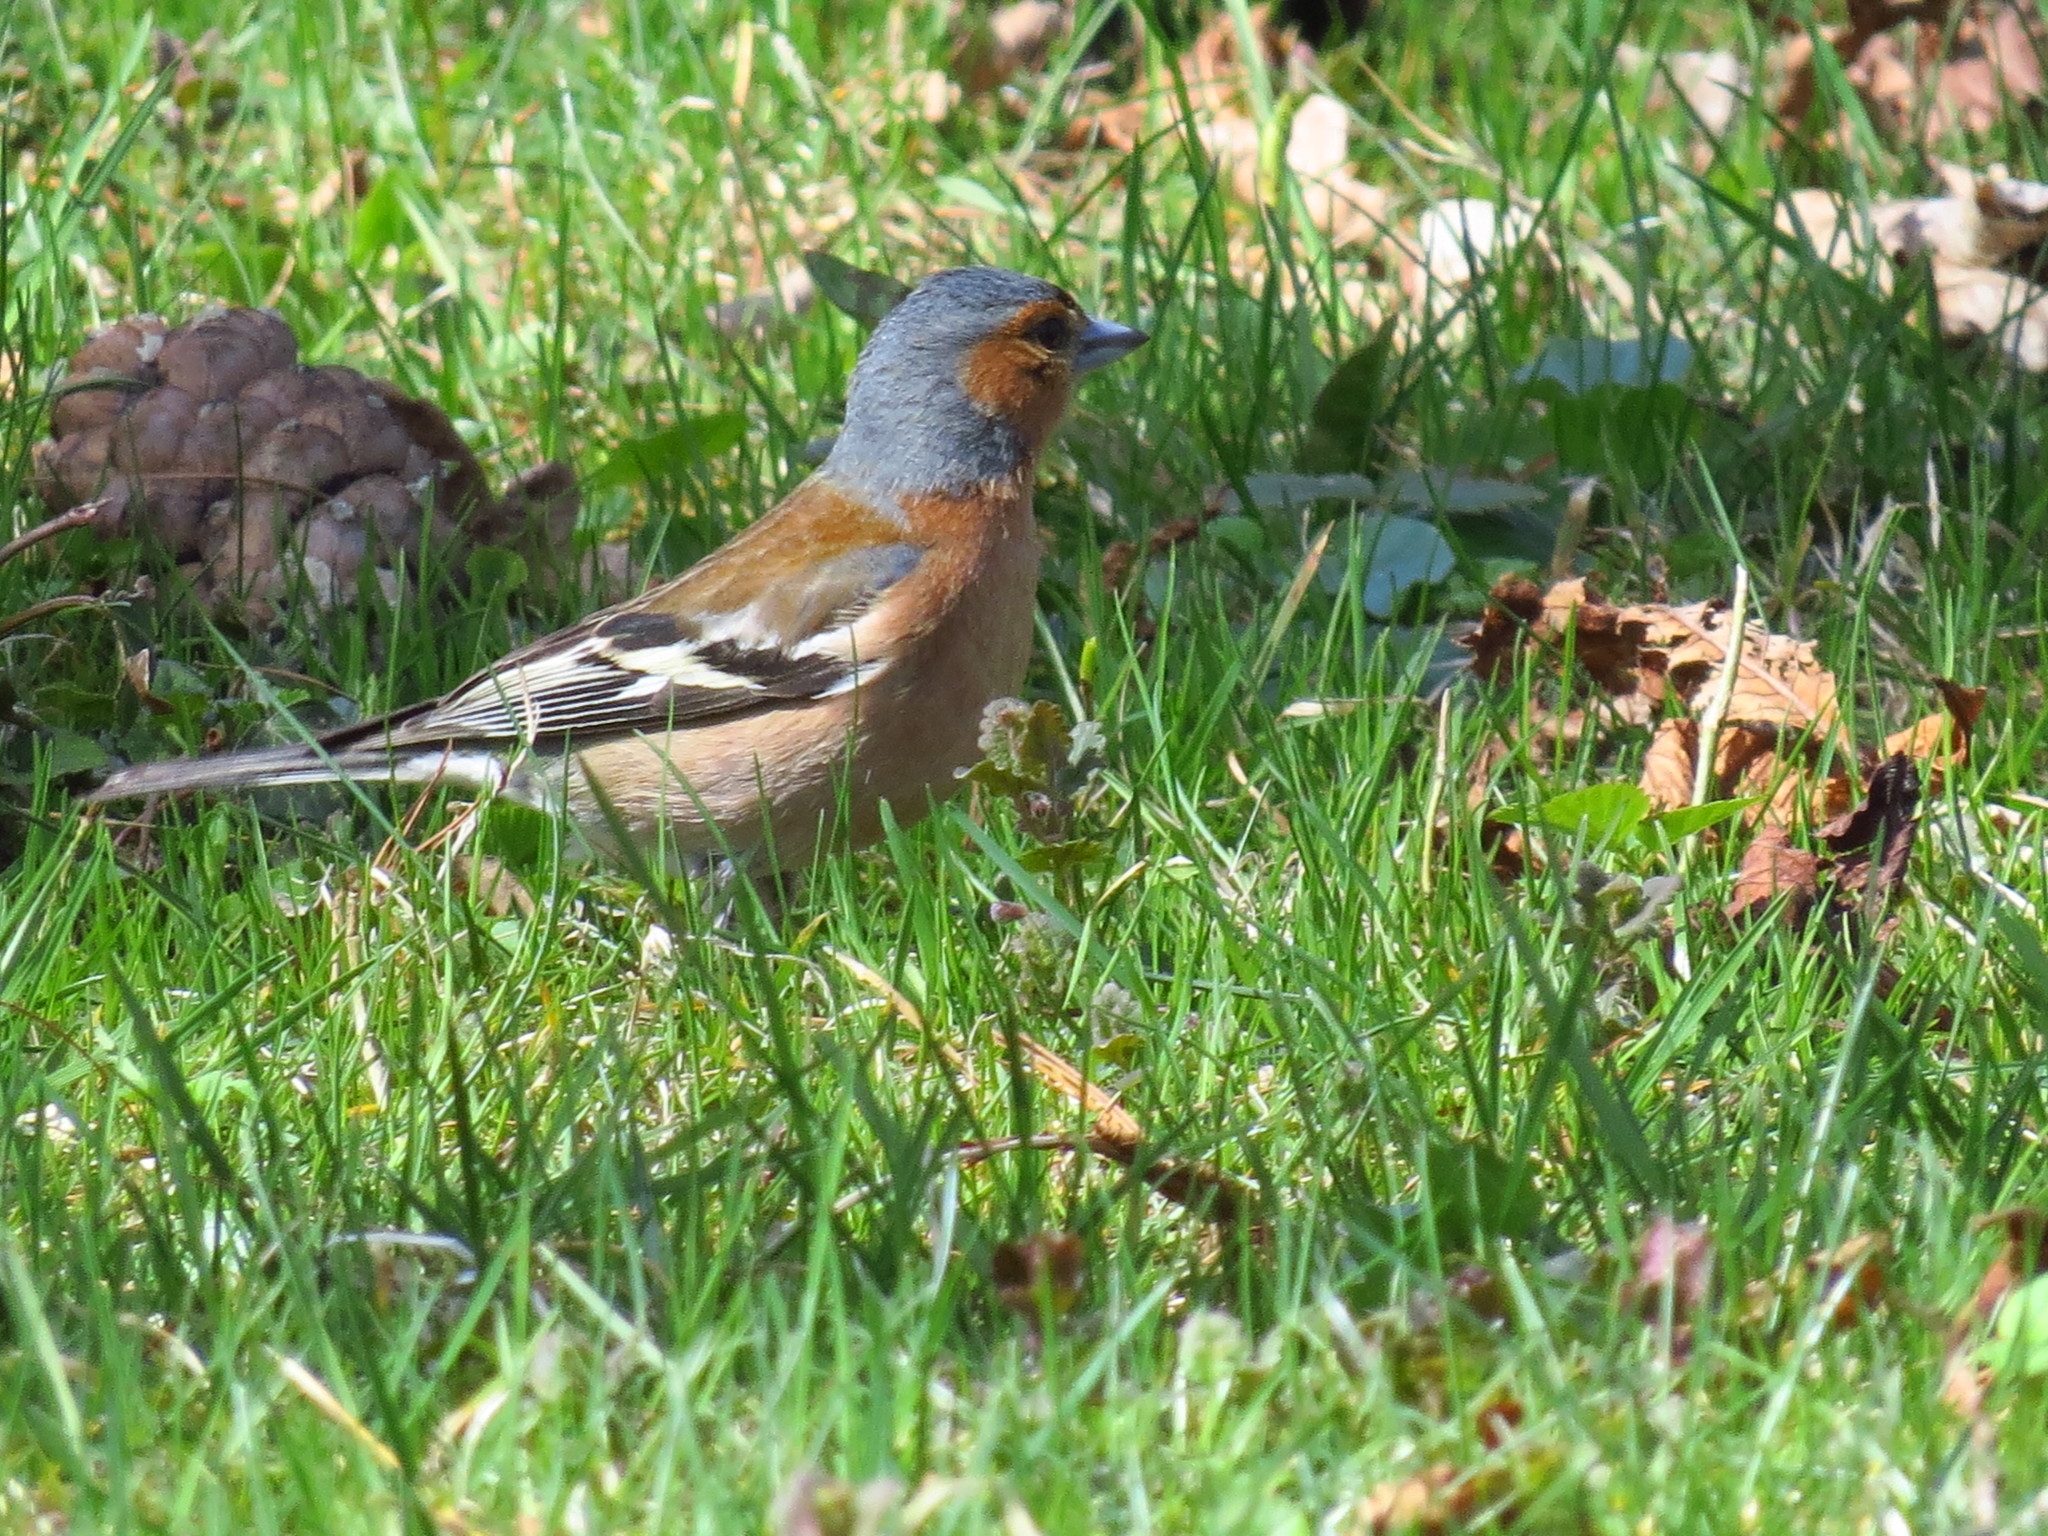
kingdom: Animalia
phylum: Chordata
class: Aves
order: Passeriformes
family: Fringillidae
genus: Fringilla
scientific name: Fringilla coelebs
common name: Common chaffinch
